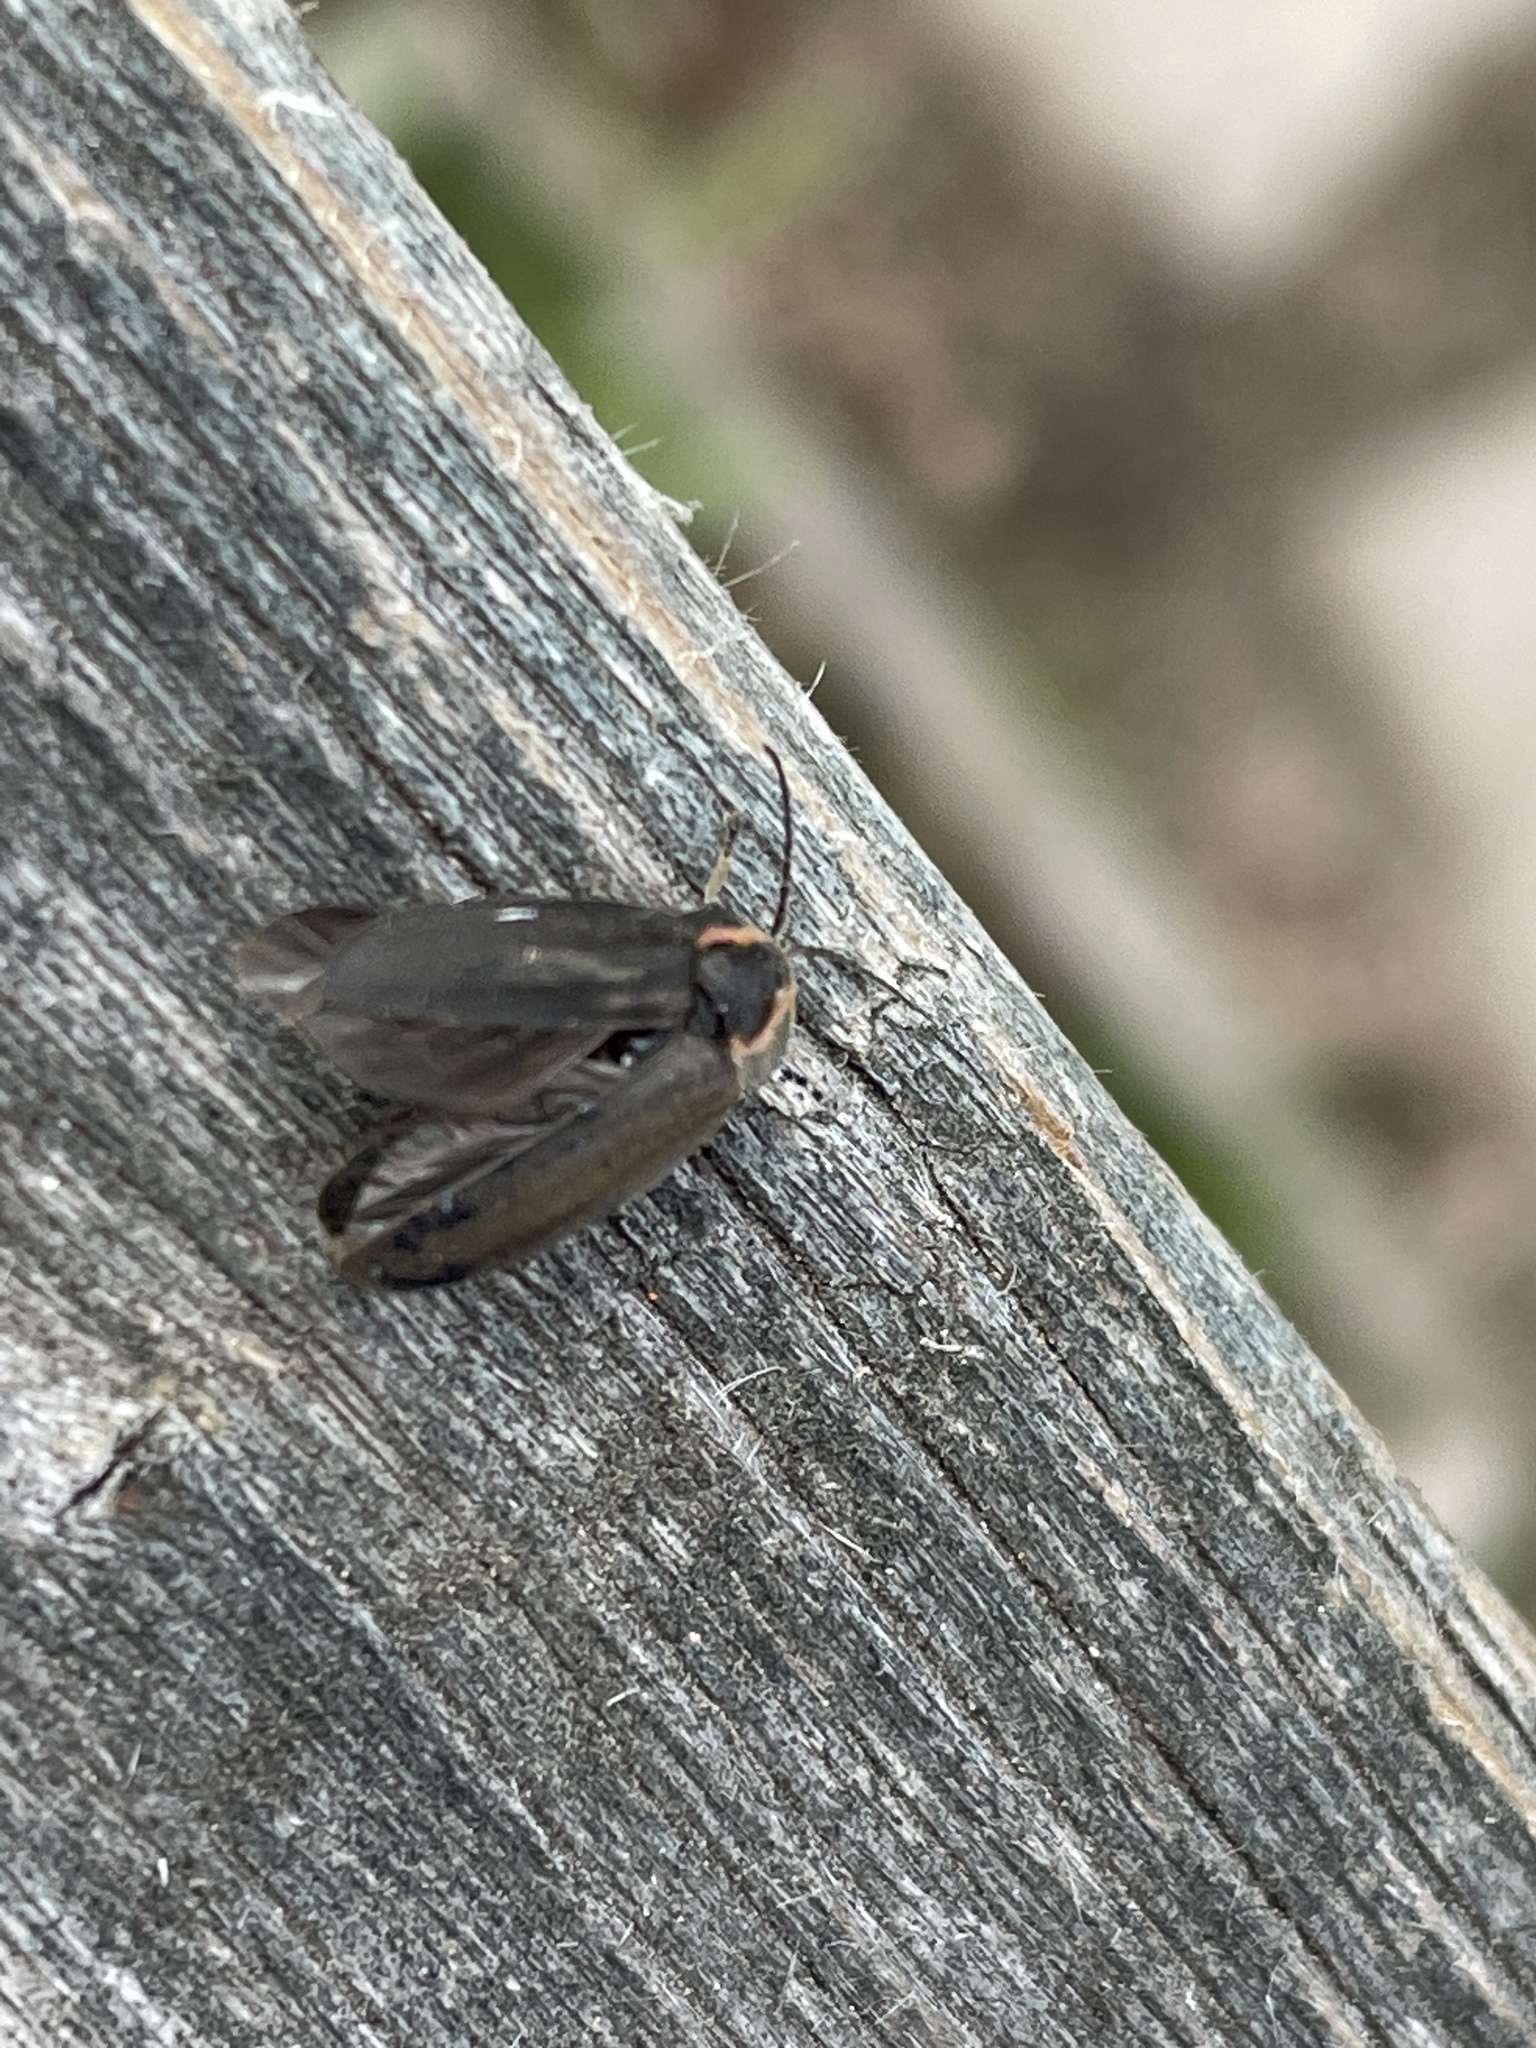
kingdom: Animalia
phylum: Arthropoda
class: Insecta
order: Coleoptera
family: Lampyridae
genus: Photinus
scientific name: Photinus corrusca
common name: Winter firefly
